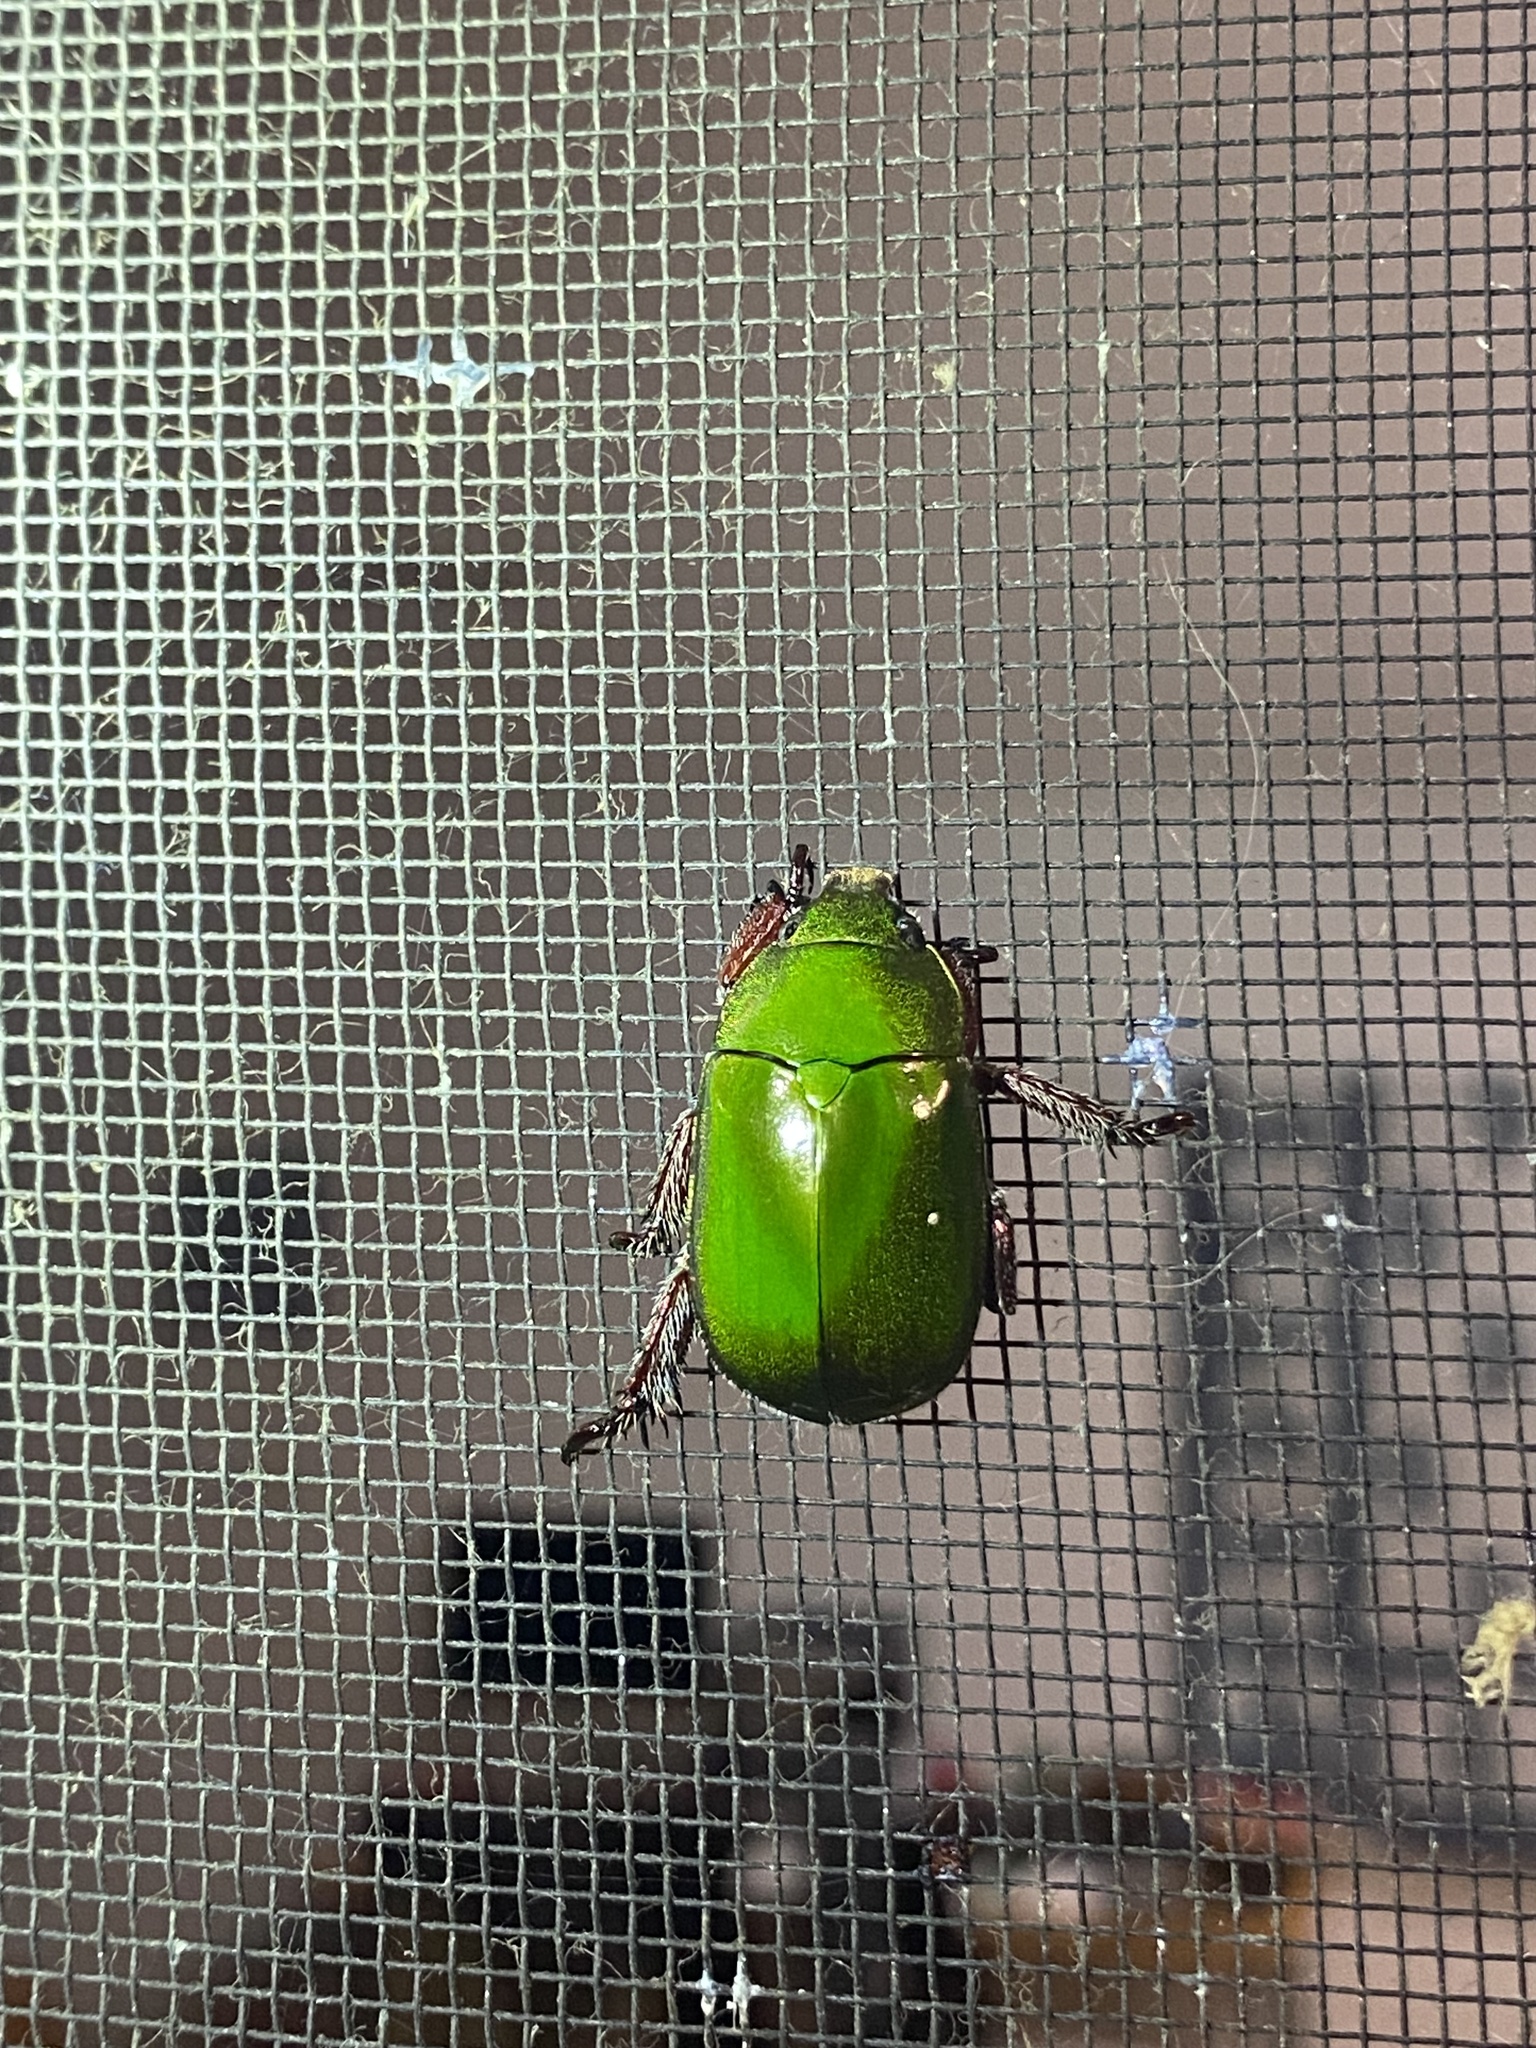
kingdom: Animalia
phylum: Arthropoda
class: Insecta
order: Coleoptera
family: Scarabaeidae
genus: Anoplognathus
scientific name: Anoplognathus punctulatus
